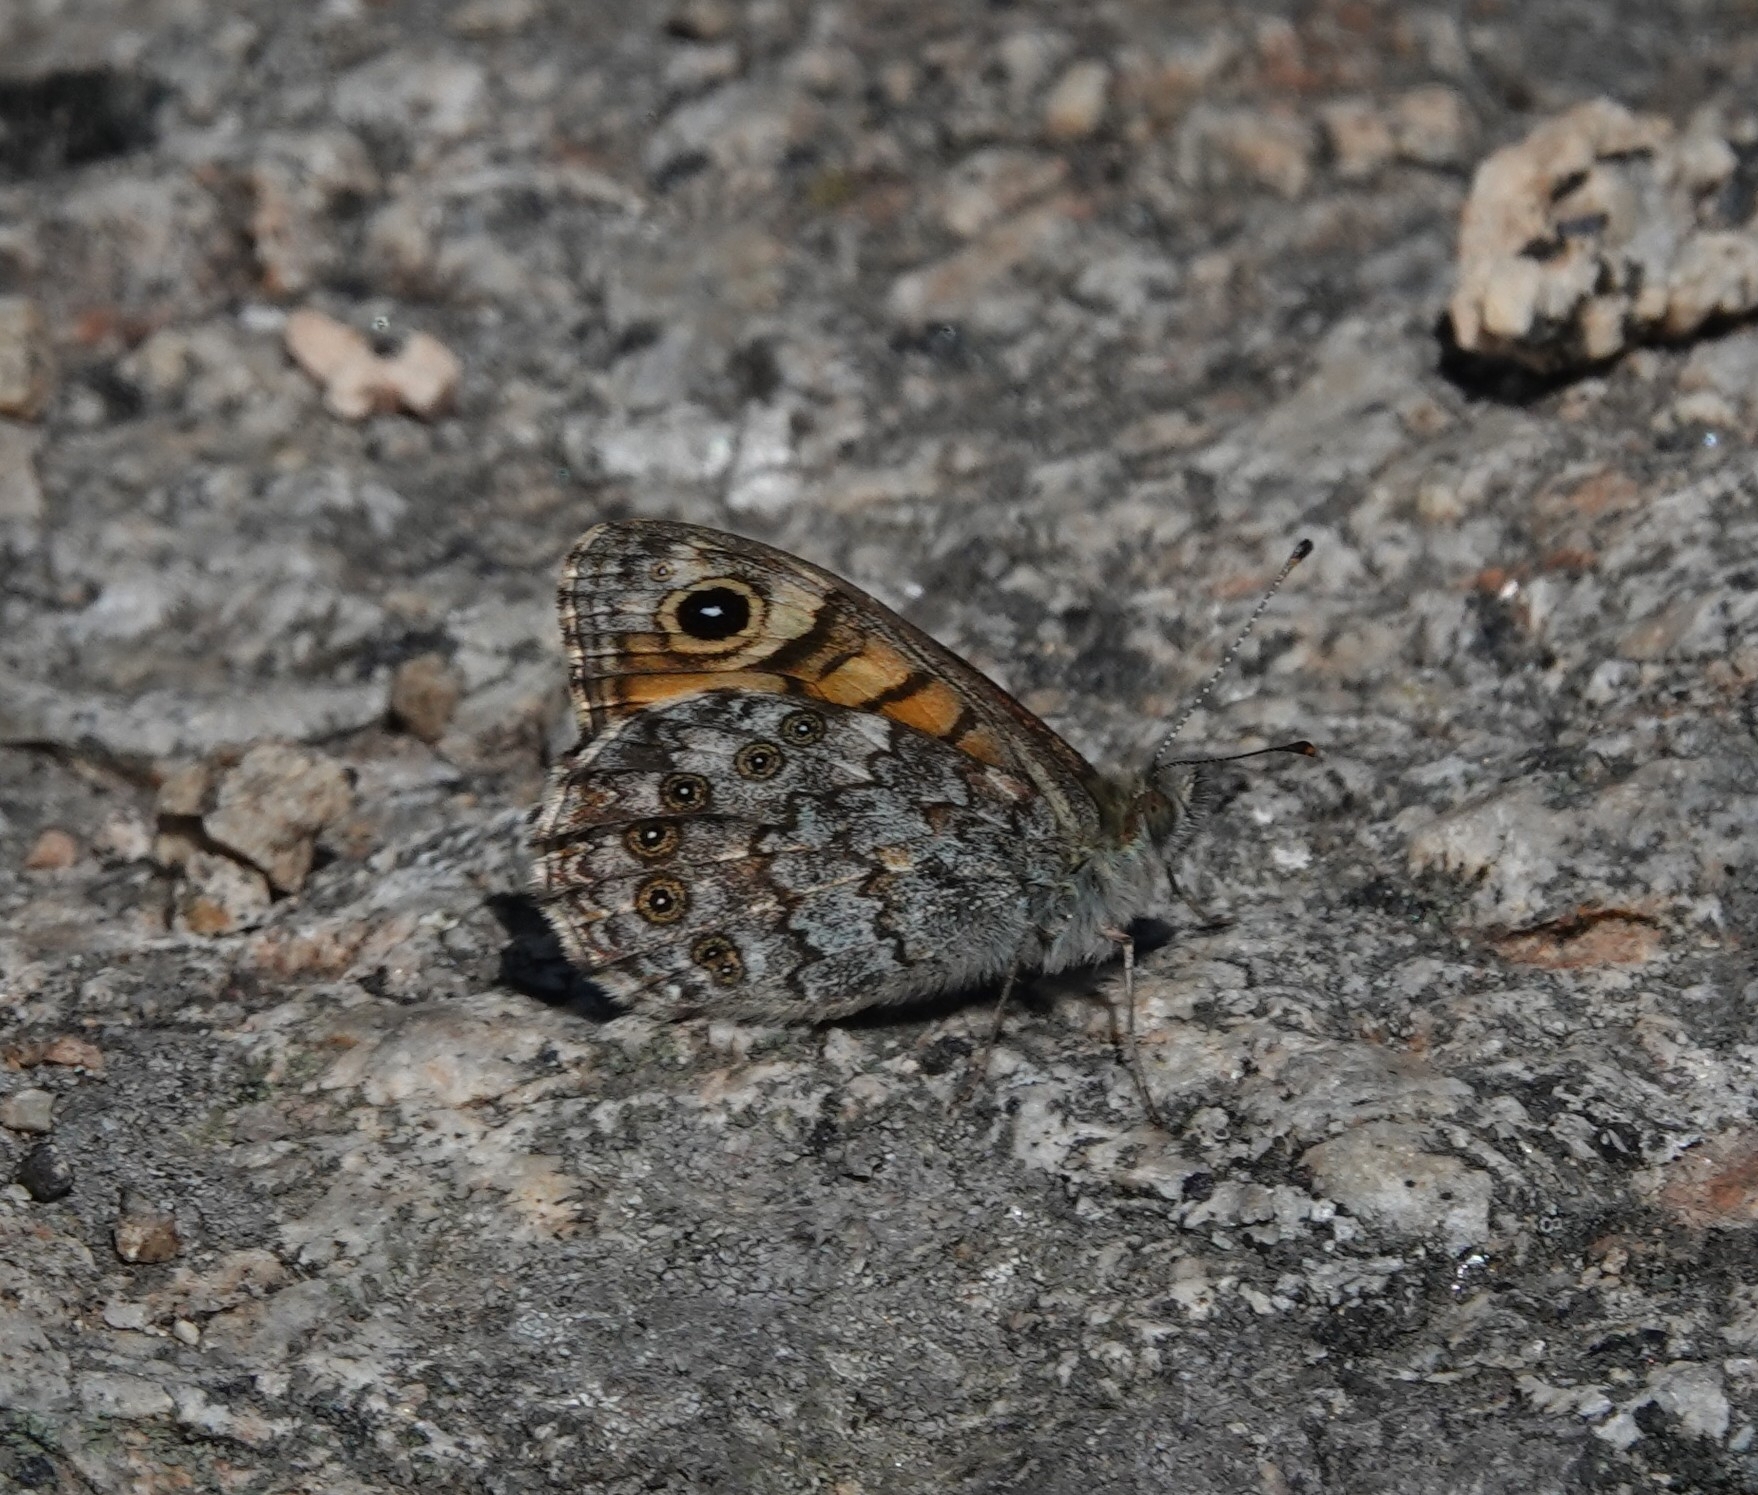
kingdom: Animalia
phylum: Arthropoda
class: Insecta
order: Lepidoptera
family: Nymphalidae
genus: Pararge
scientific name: Pararge Lasiommata megera
